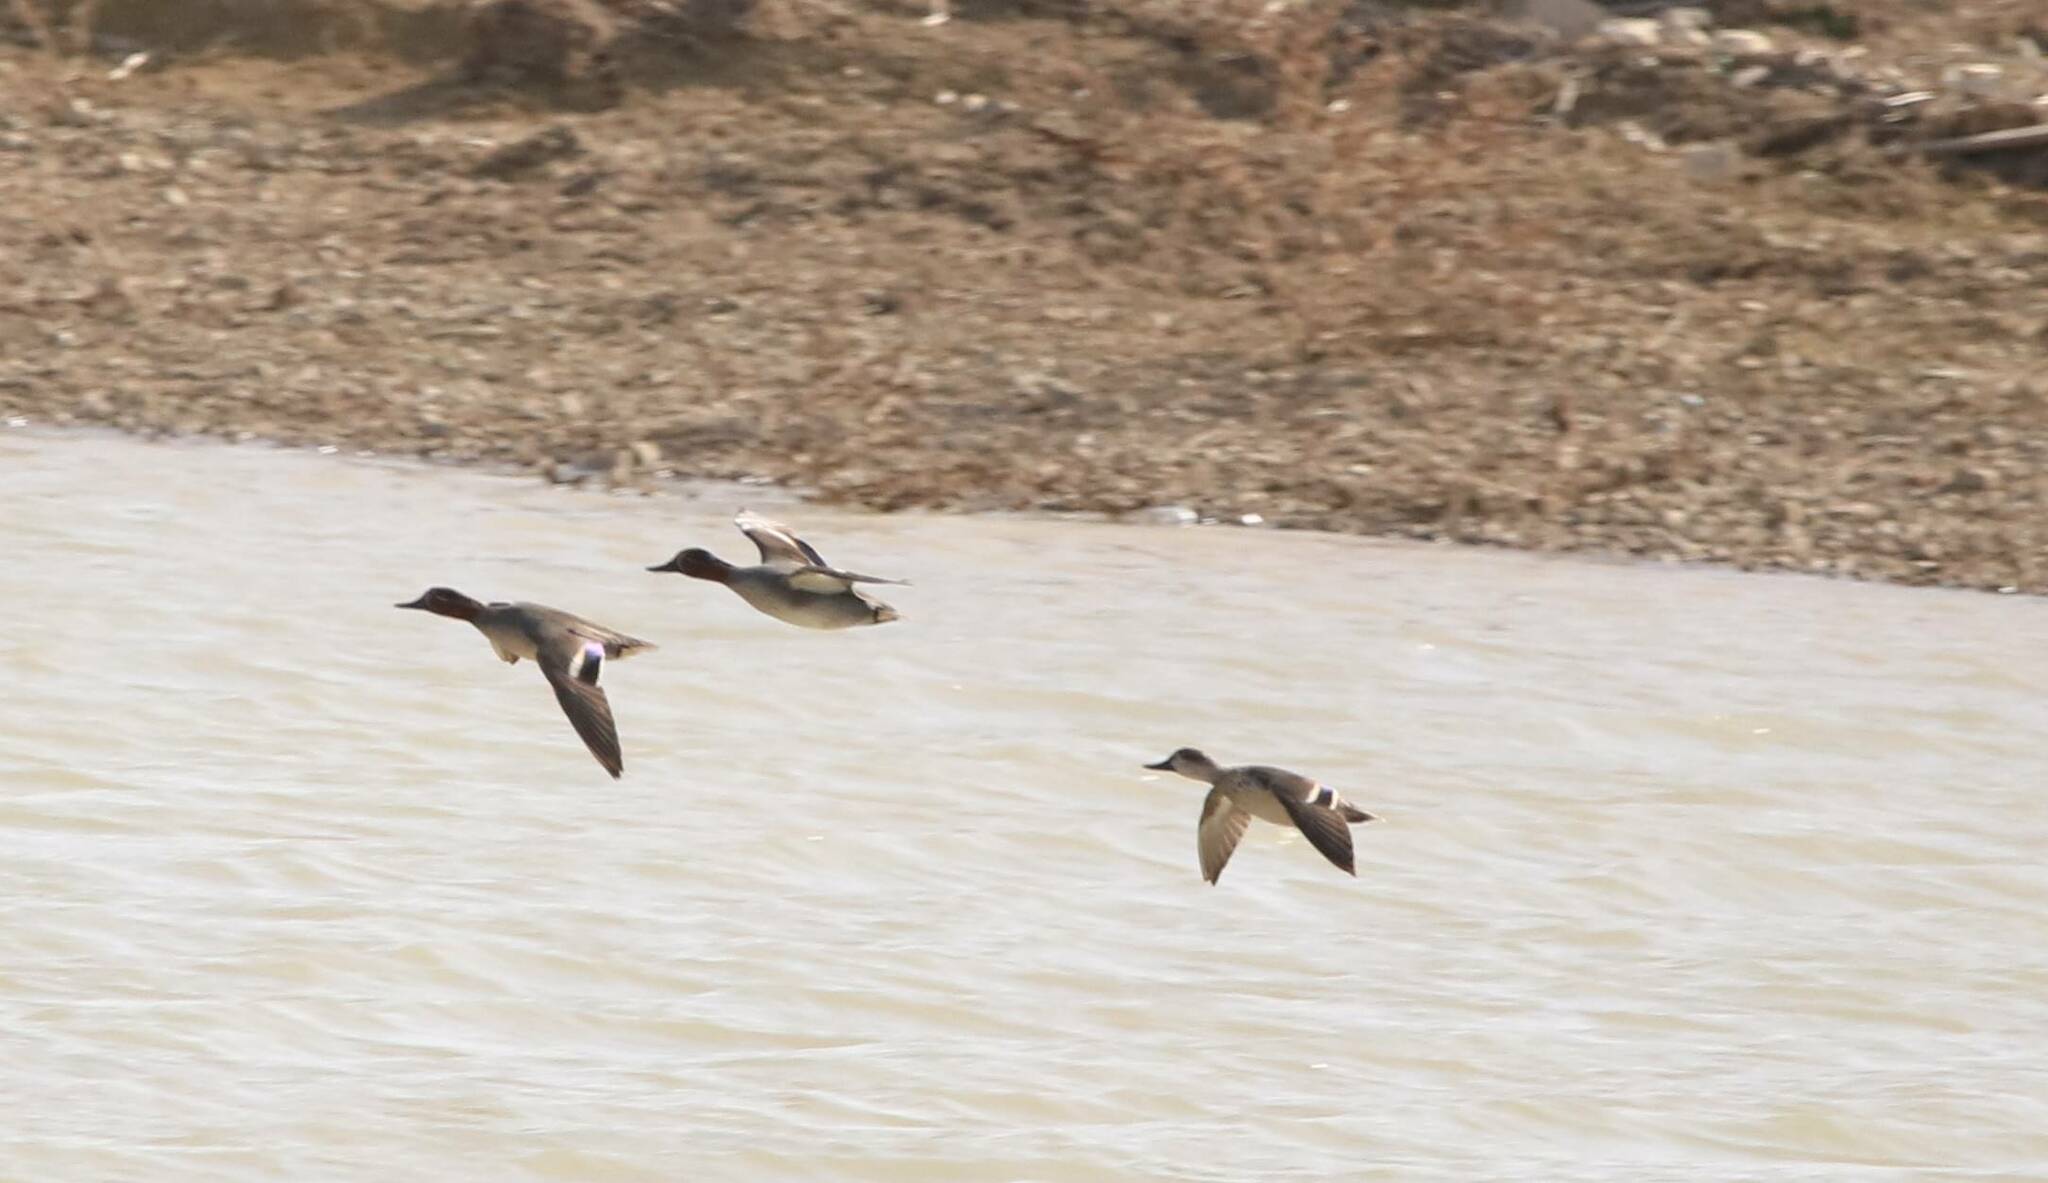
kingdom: Animalia
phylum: Chordata
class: Aves
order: Anseriformes
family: Anatidae
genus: Anas
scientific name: Anas crecca
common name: Eurasian teal
